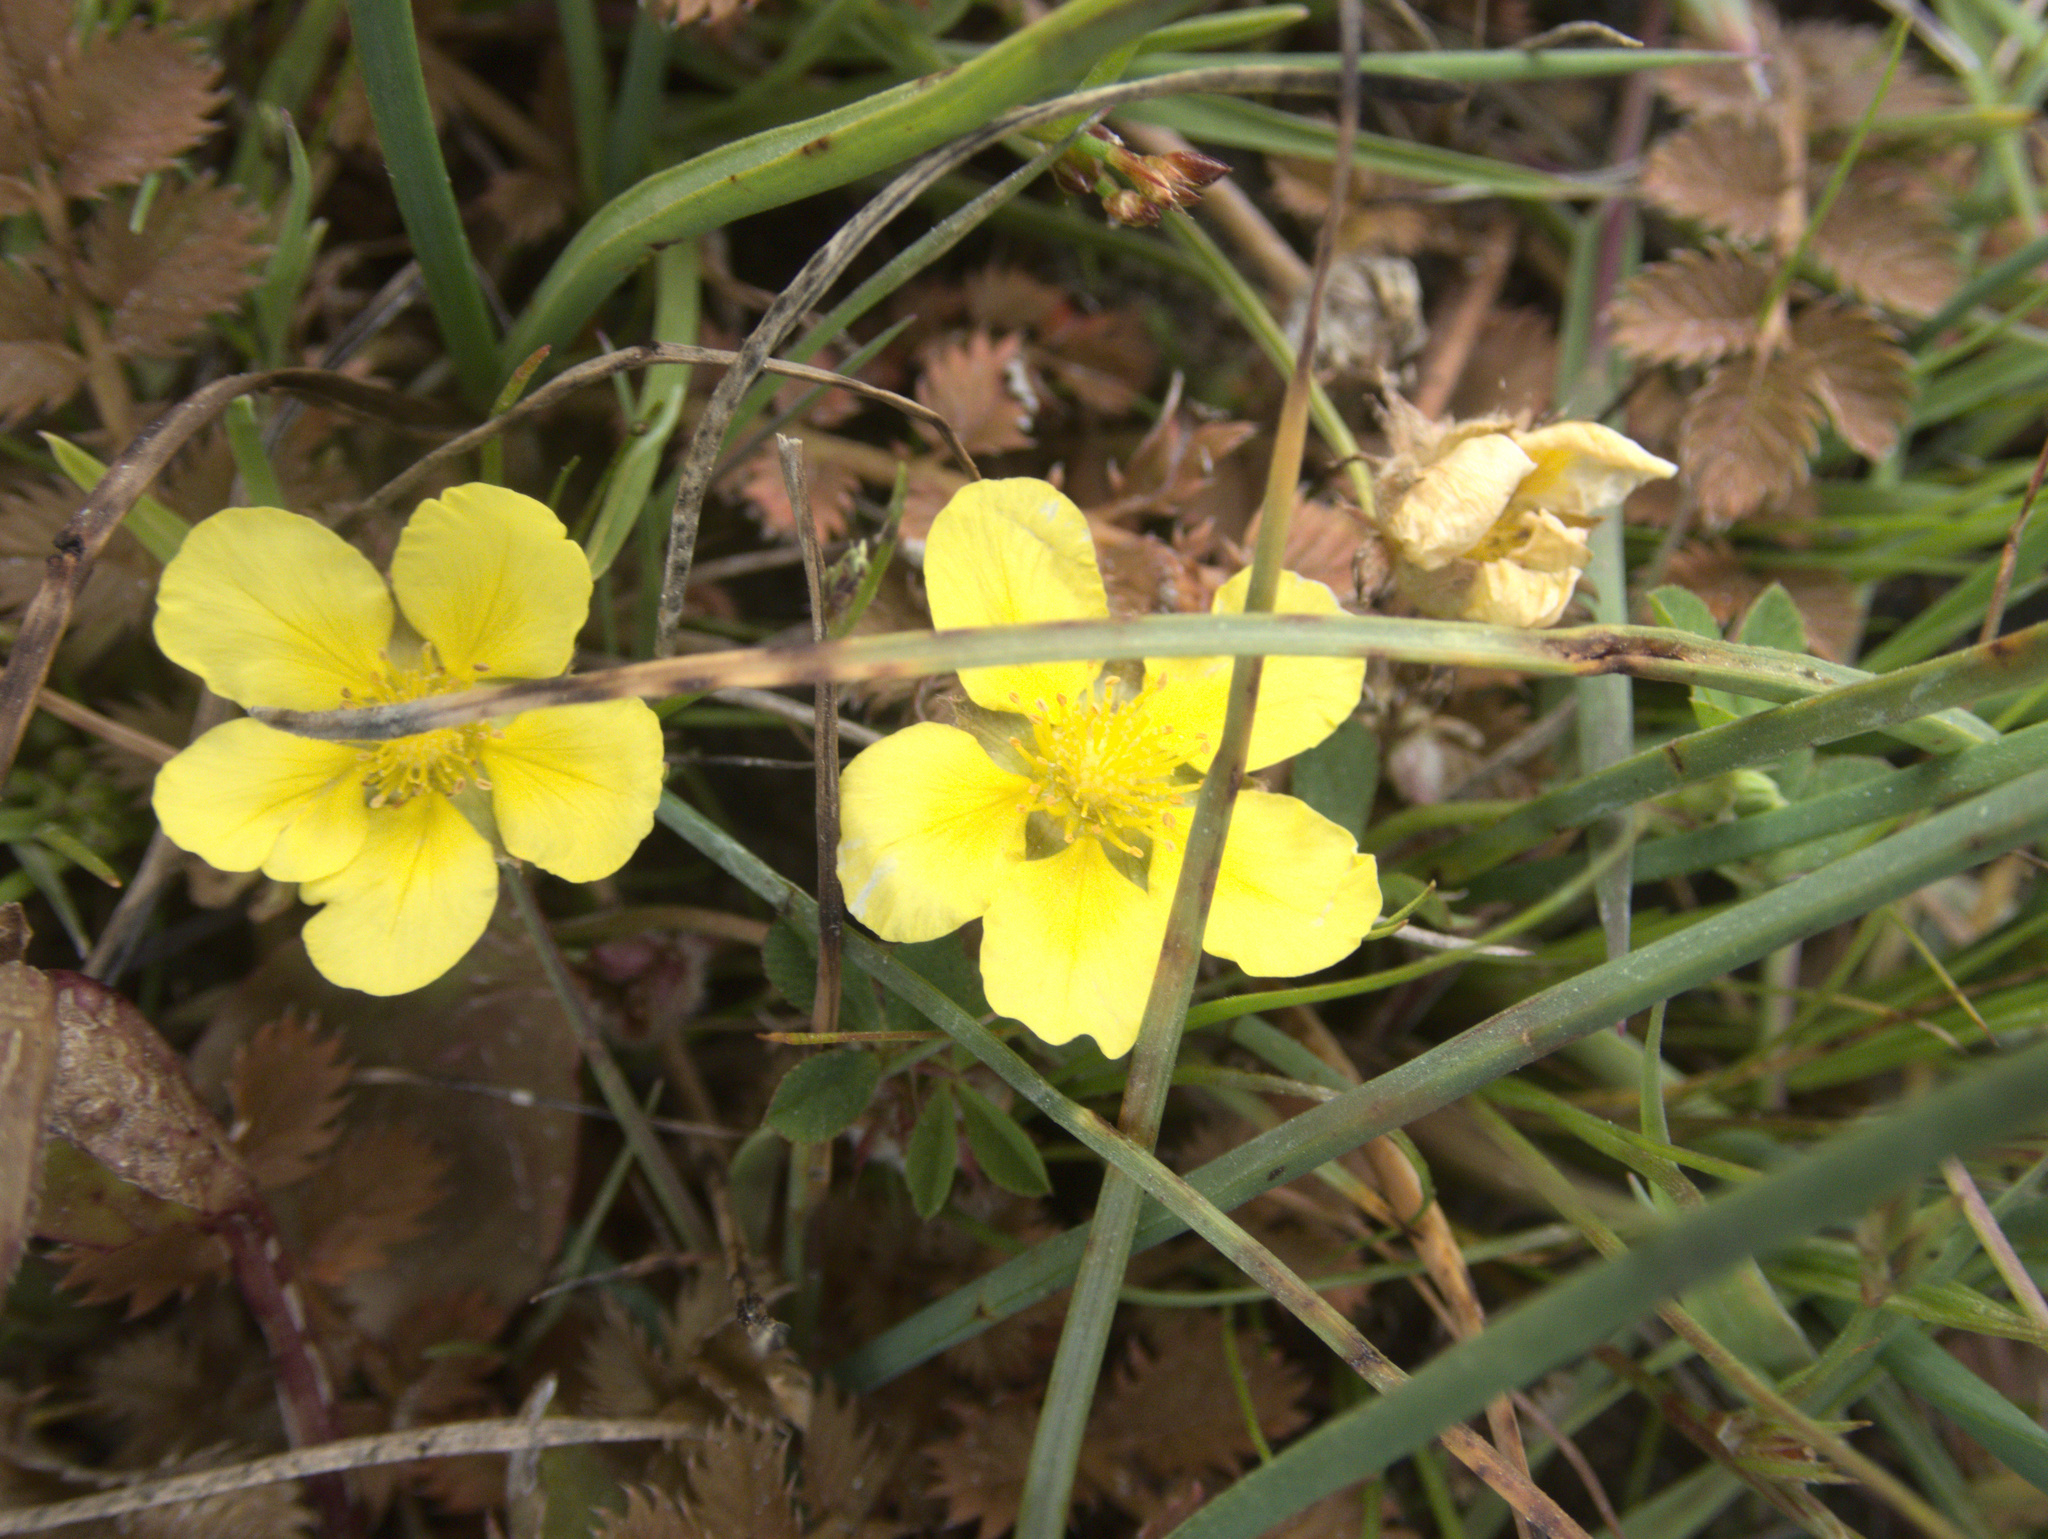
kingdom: Plantae
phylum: Tracheophyta
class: Magnoliopsida
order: Rosales
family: Rosaceae
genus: Argentina
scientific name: Argentina anserinoides
